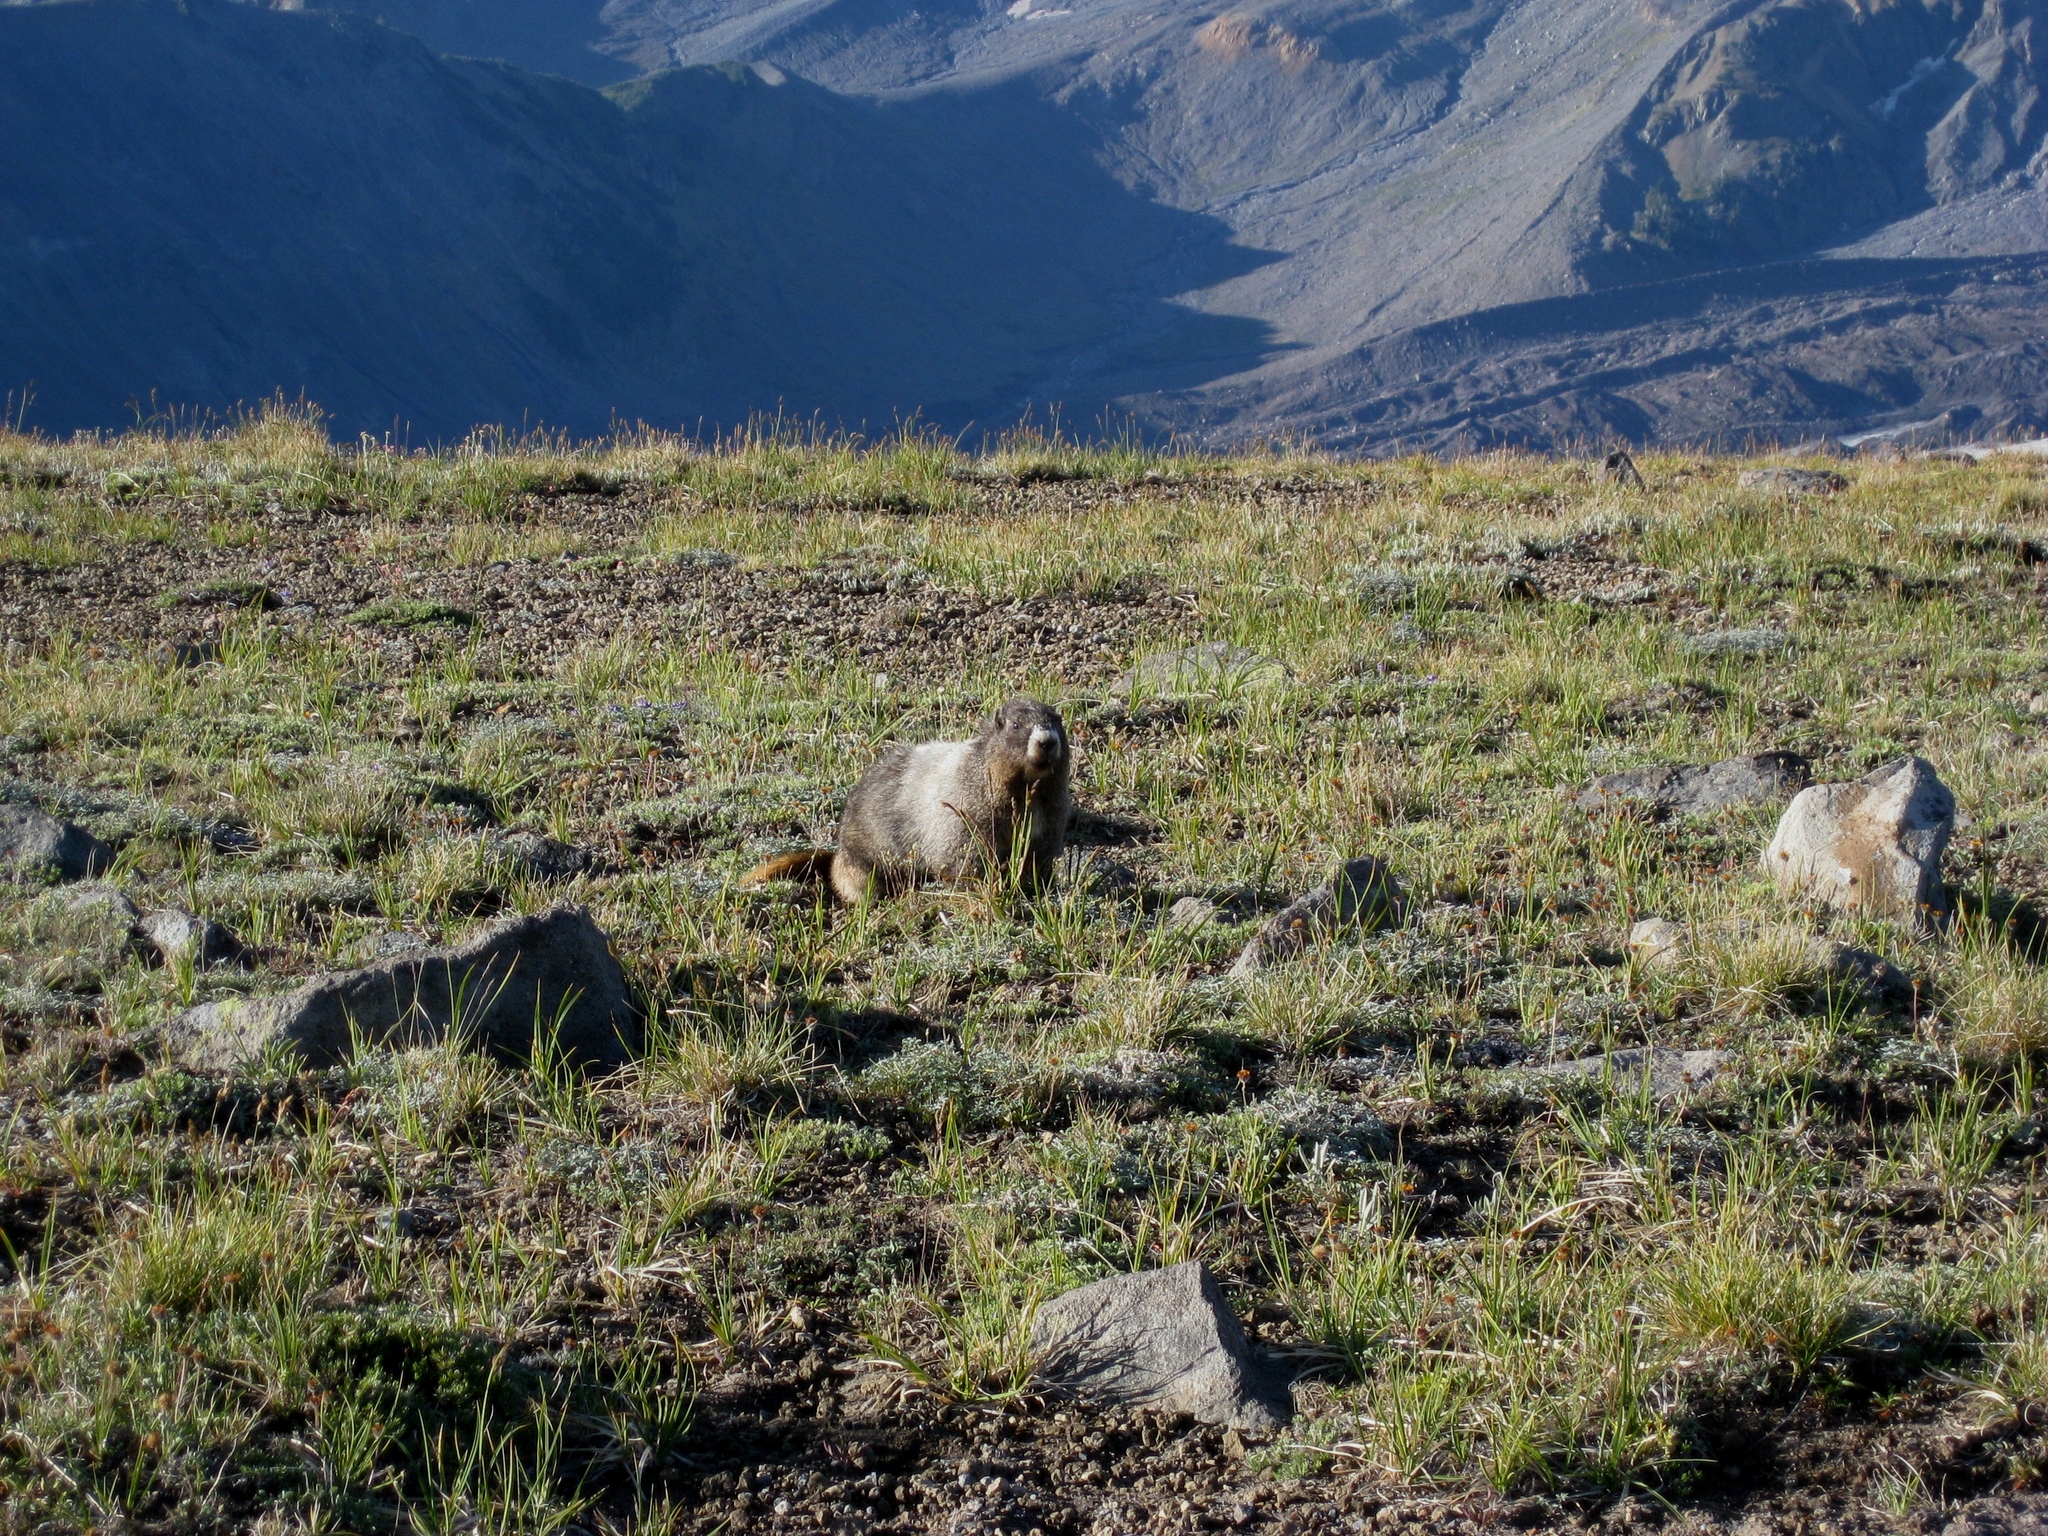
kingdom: Animalia
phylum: Chordata
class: Mammalia
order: Rodentia
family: Sciuridae
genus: Marmota
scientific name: Marmota caligata
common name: Hoary marmot
